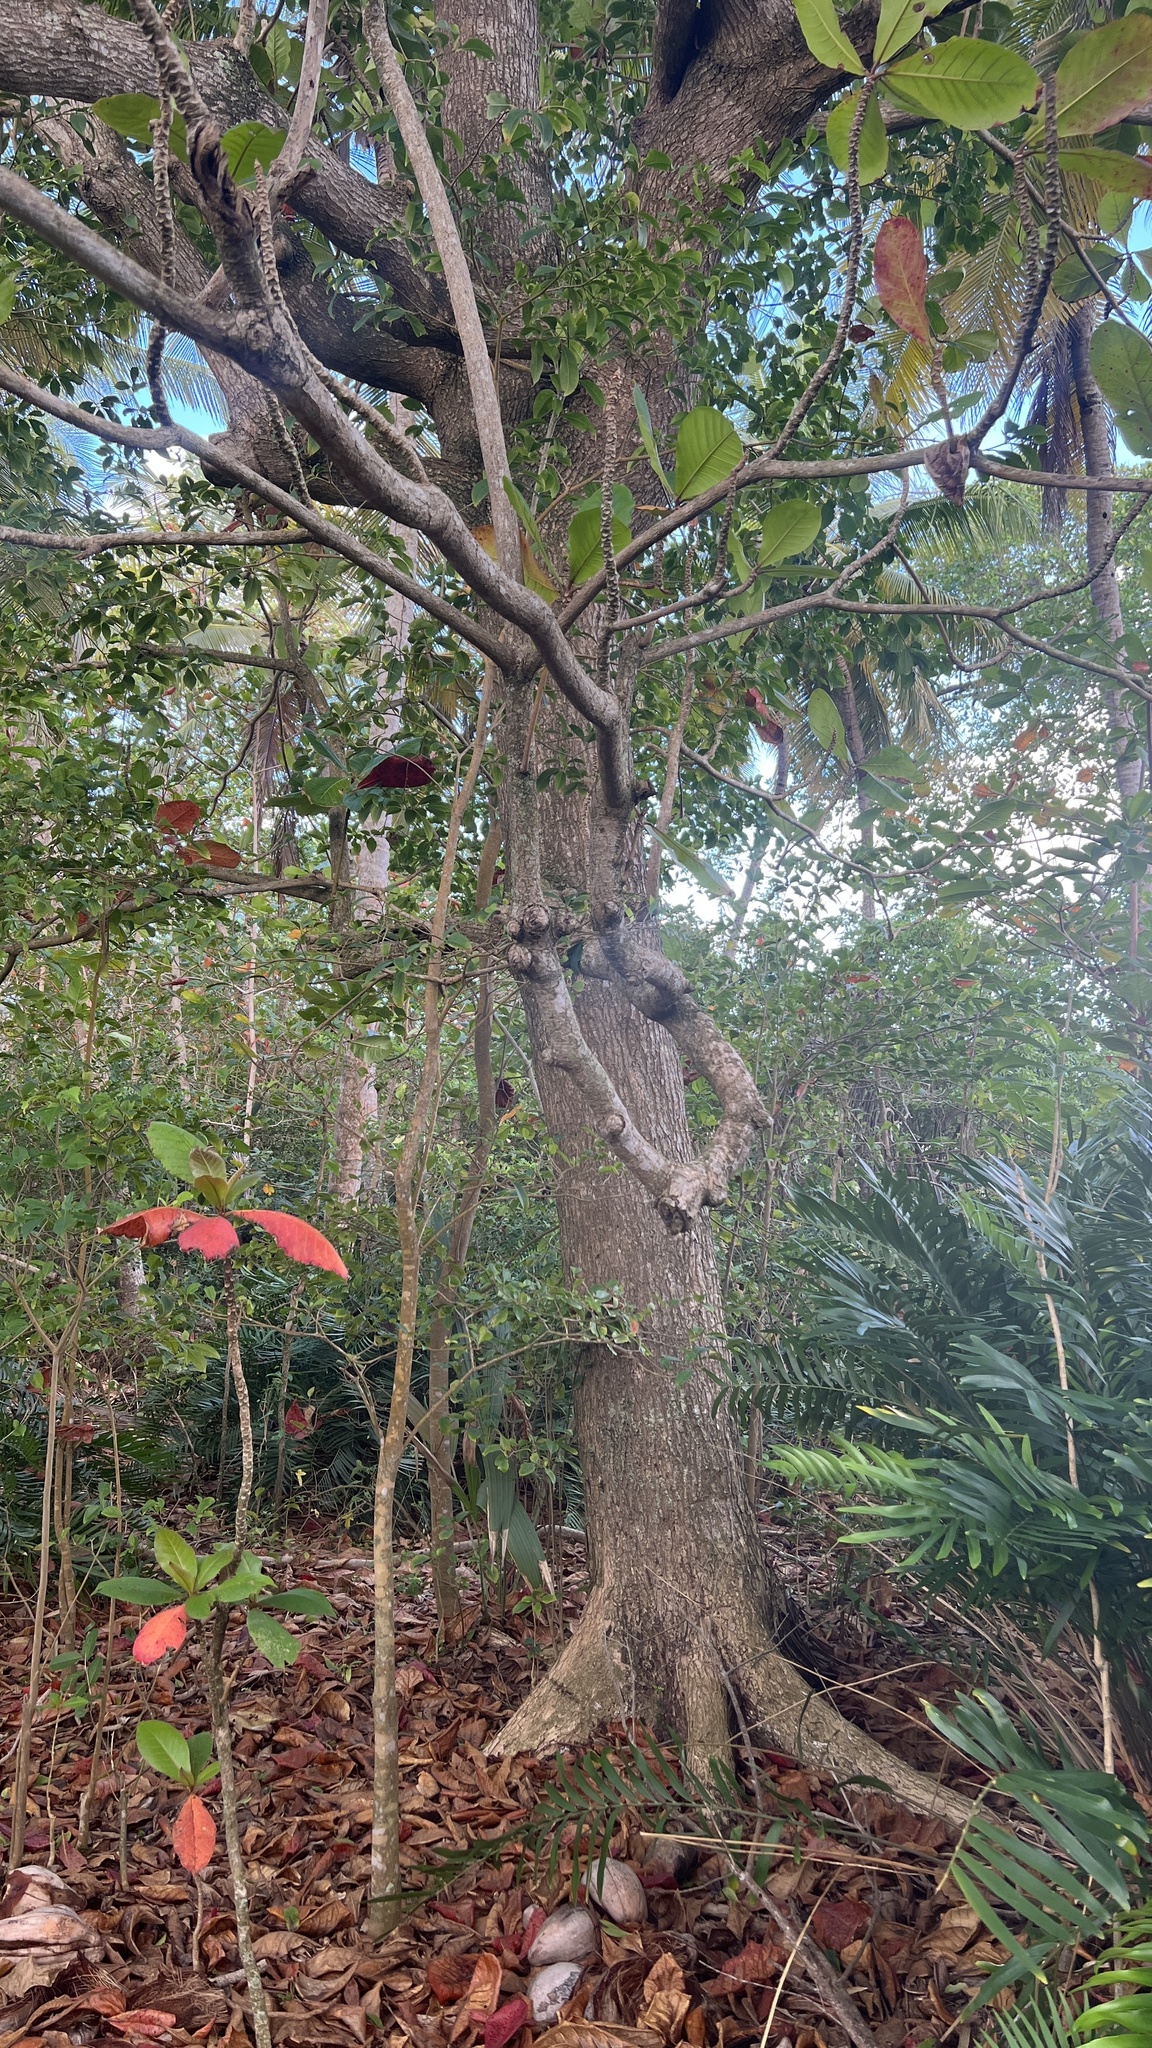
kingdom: Plantae
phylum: Tracheophyta
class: Magnoliopsida
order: Myrtales
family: Combretaceae
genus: Terminalia
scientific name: Terminalia catappa
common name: Tropical almond
